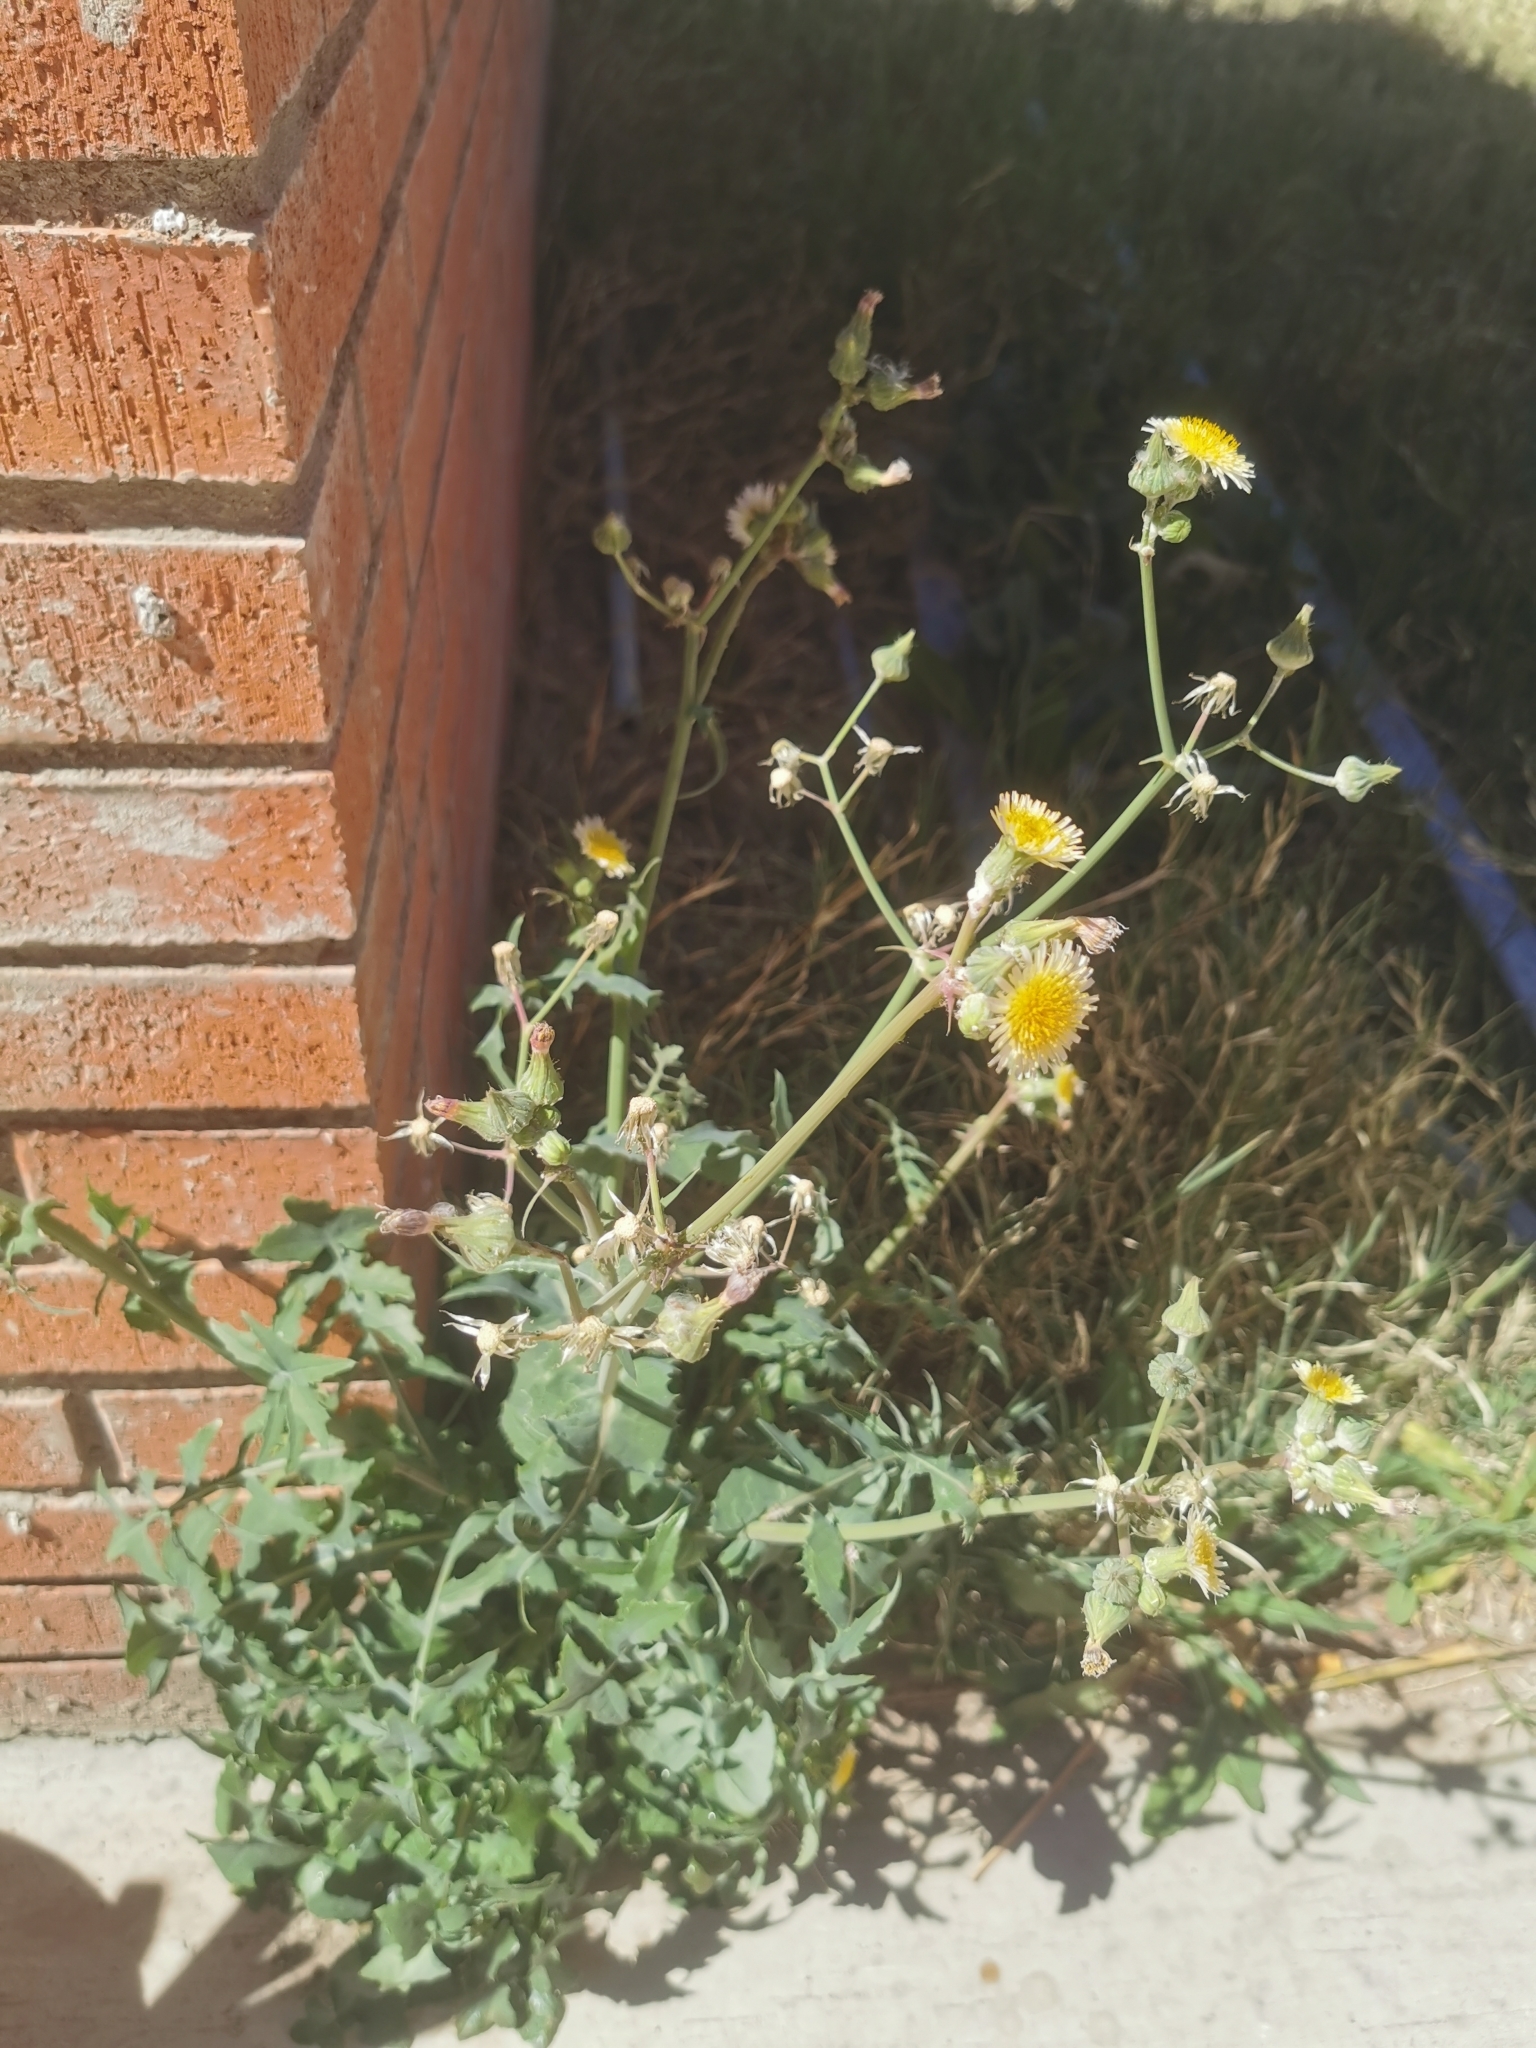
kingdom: Plantae
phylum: Tracheophyta
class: Magnoliopsida
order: Asterales
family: Asteraceae
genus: Sonchus
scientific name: Sonchus oleraceus
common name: Common sowthistle
